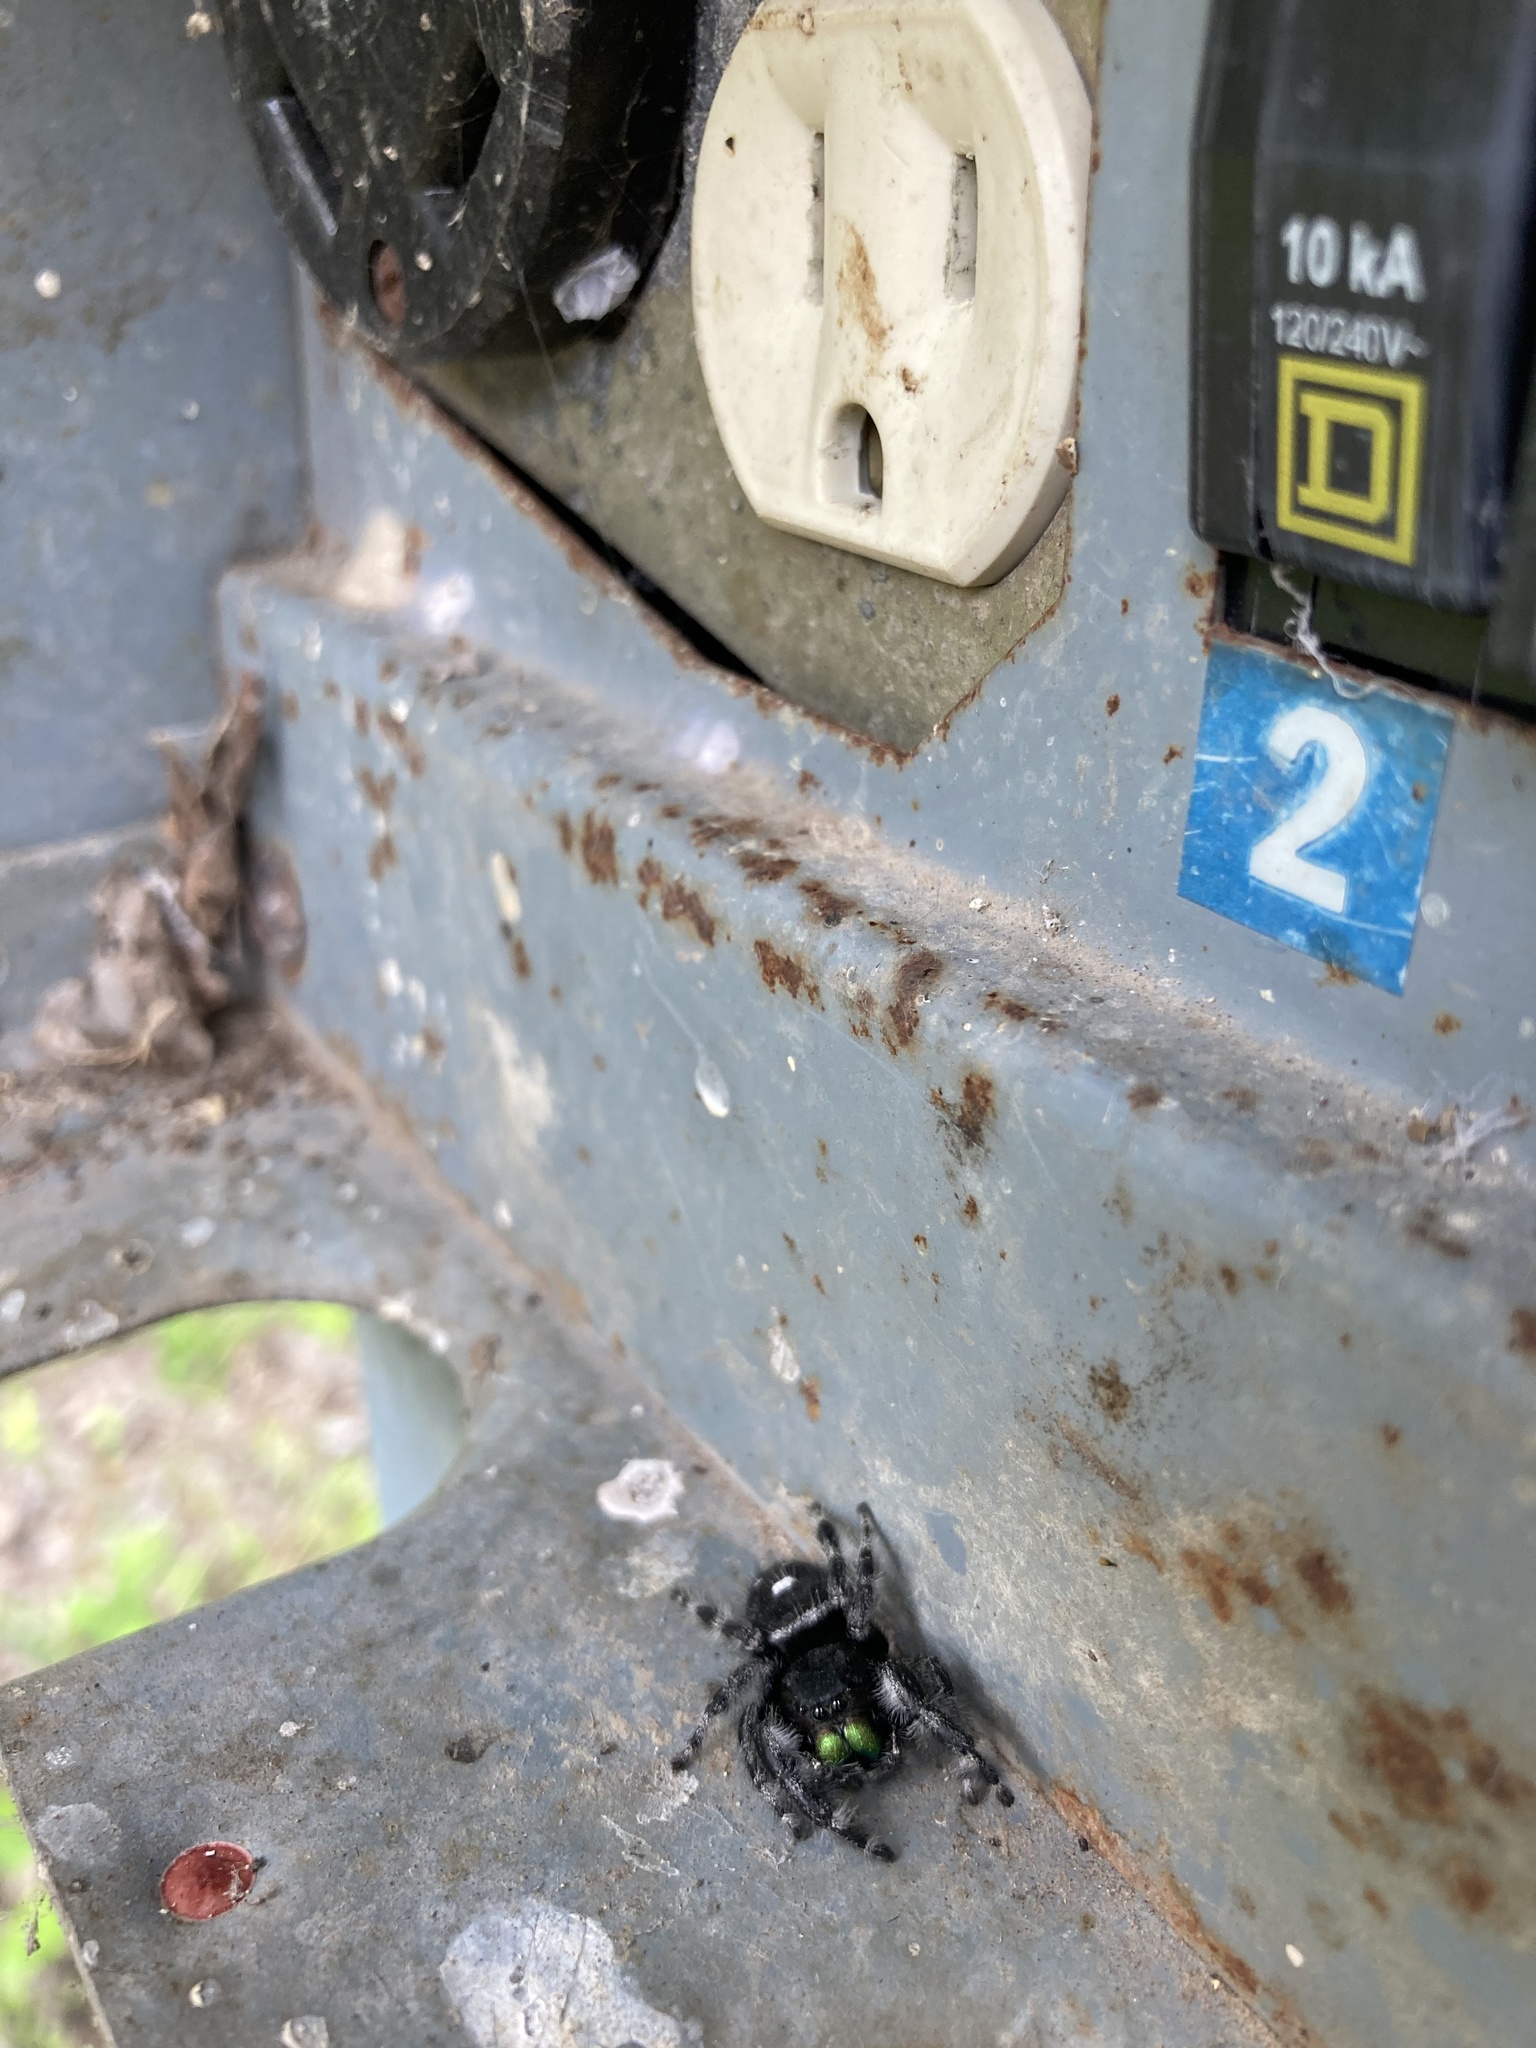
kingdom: Animalia
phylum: Arthropoda
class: Arachnida
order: Araneae
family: Salticidae
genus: Phidippus
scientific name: Phidippus audax
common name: Bold jumper
